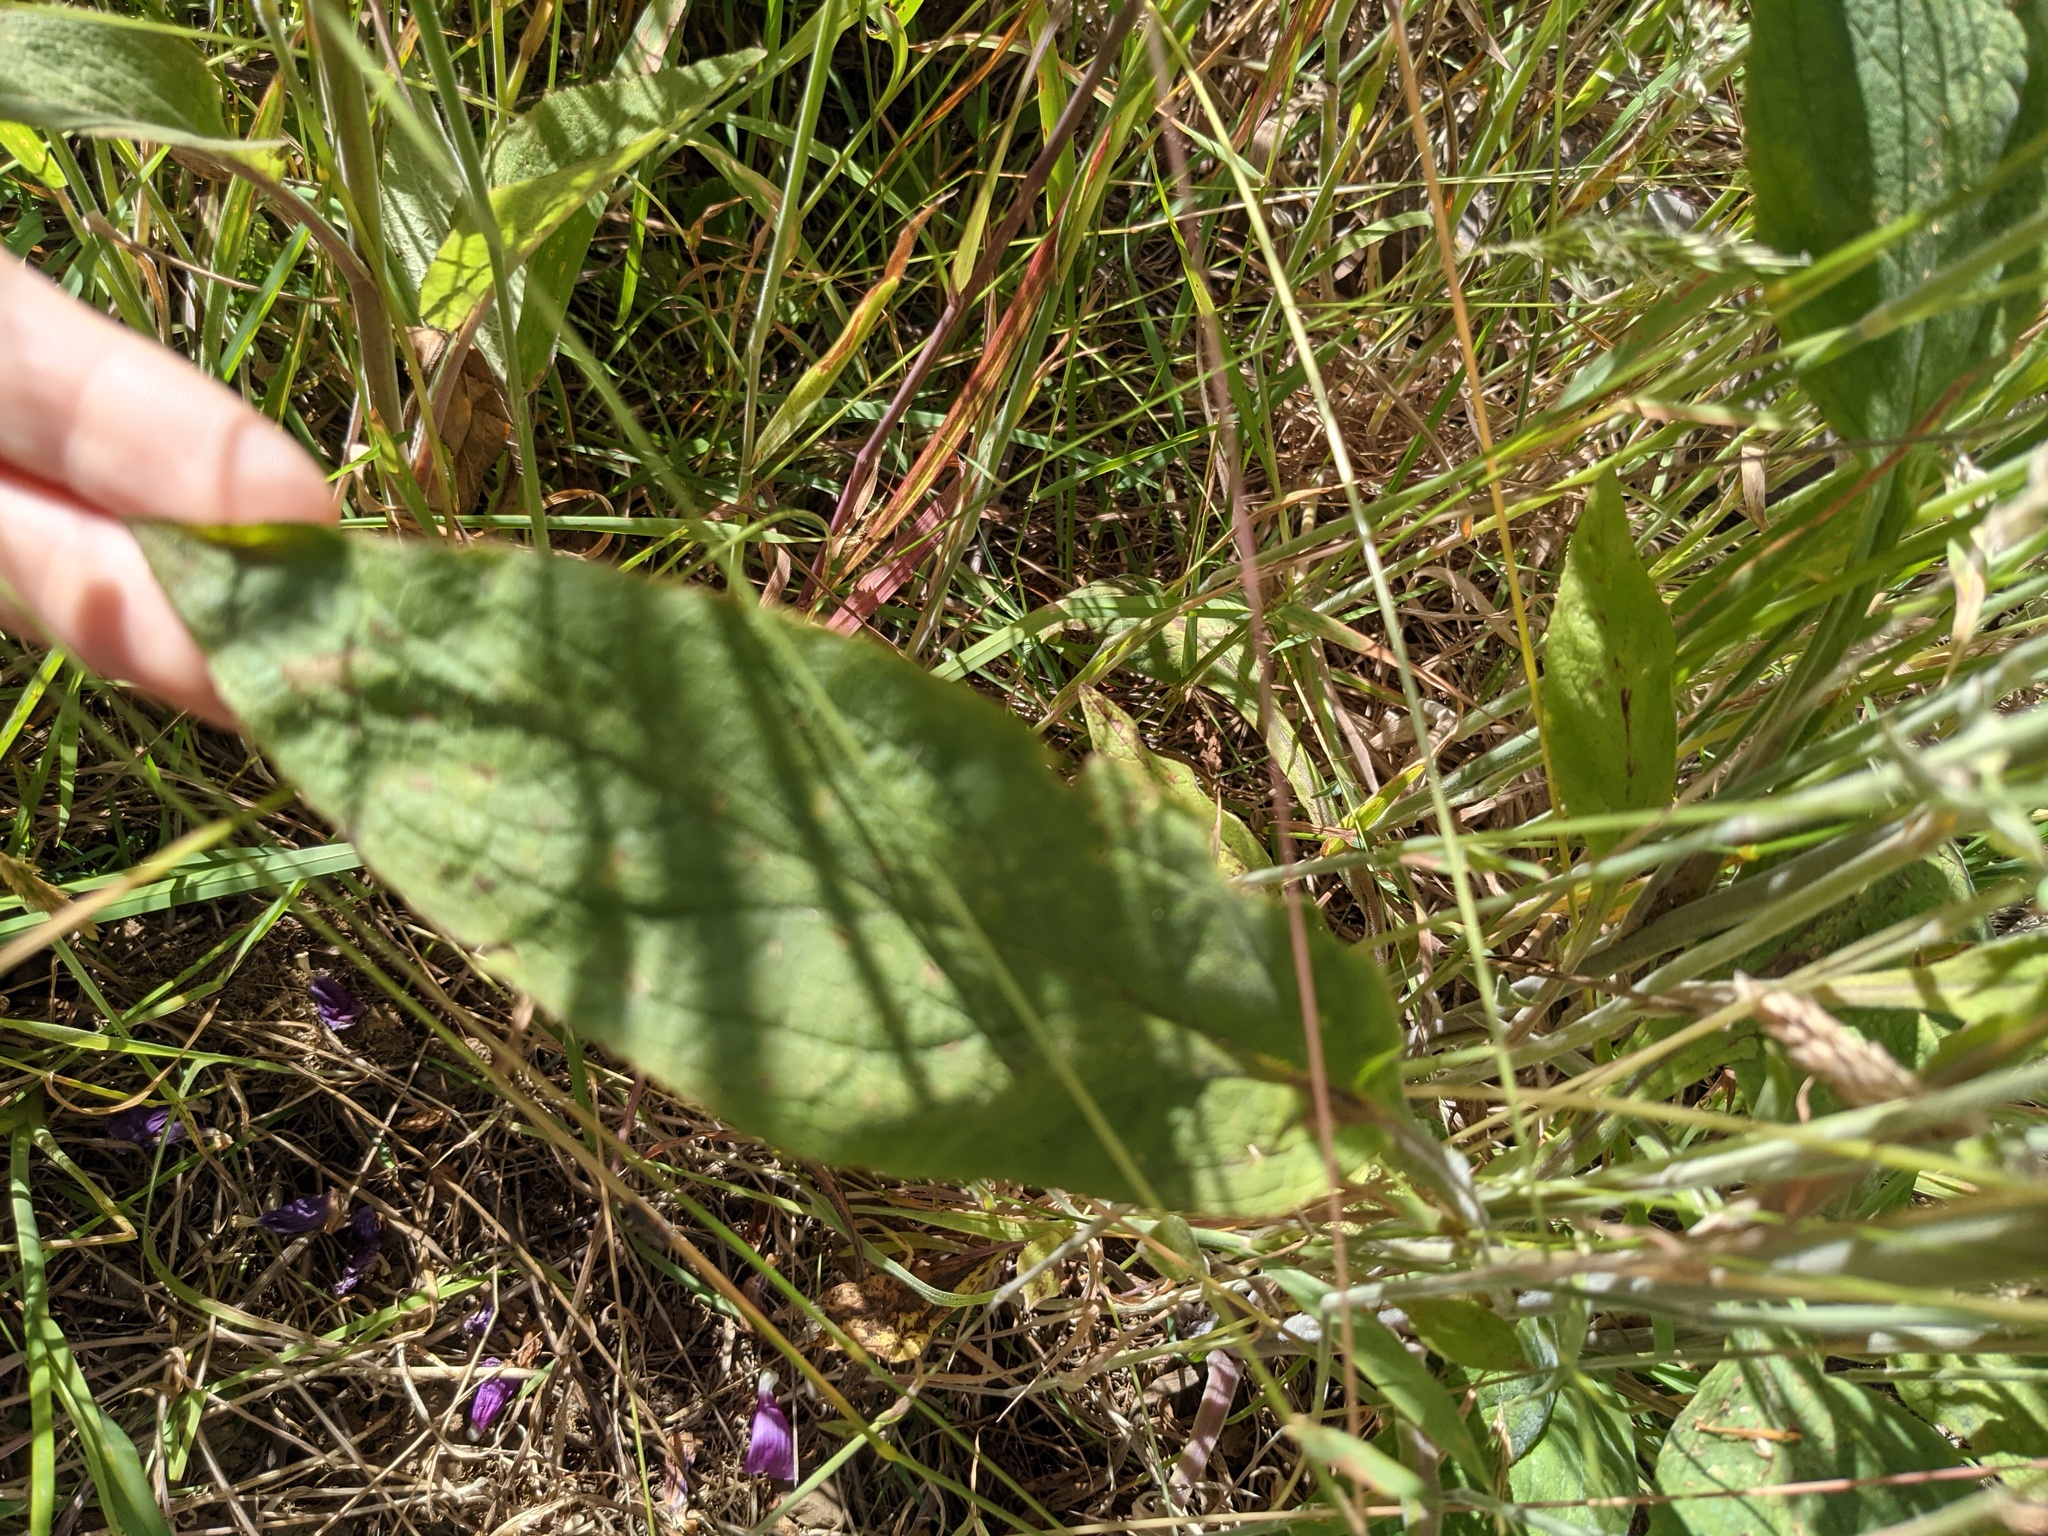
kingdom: Plantae
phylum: Tracheophyta
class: Magnoliopsida
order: Lamiales
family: Plantaginaceae
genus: Digitalis
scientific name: Digitalis purpurea
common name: Foxglove
